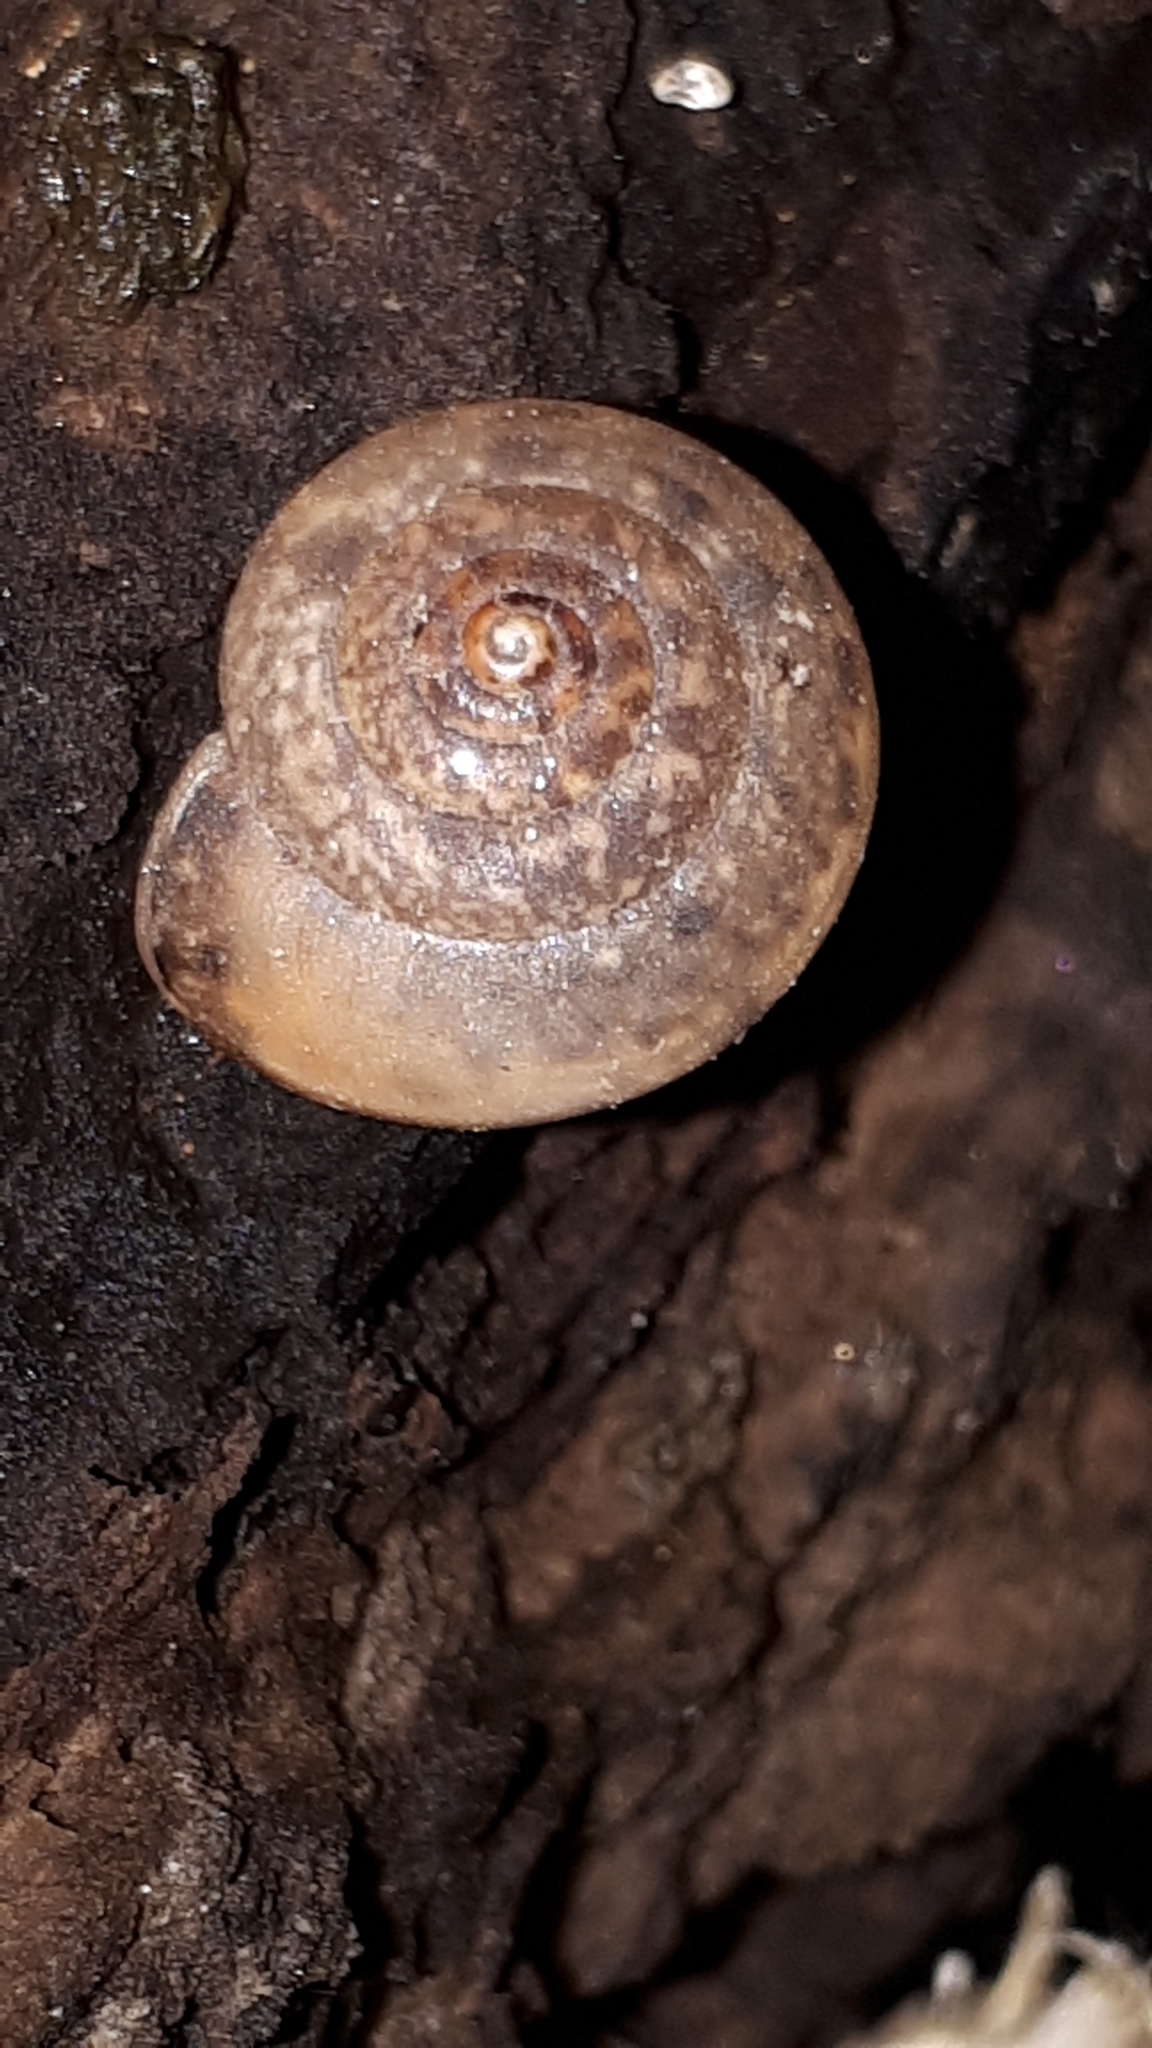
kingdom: Animalia
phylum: Mollusca
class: Gastropoda
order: Stylommatophora
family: Hygromiidae
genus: Monachoides
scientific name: Monachoides incarnatus
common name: Incarnate snail
